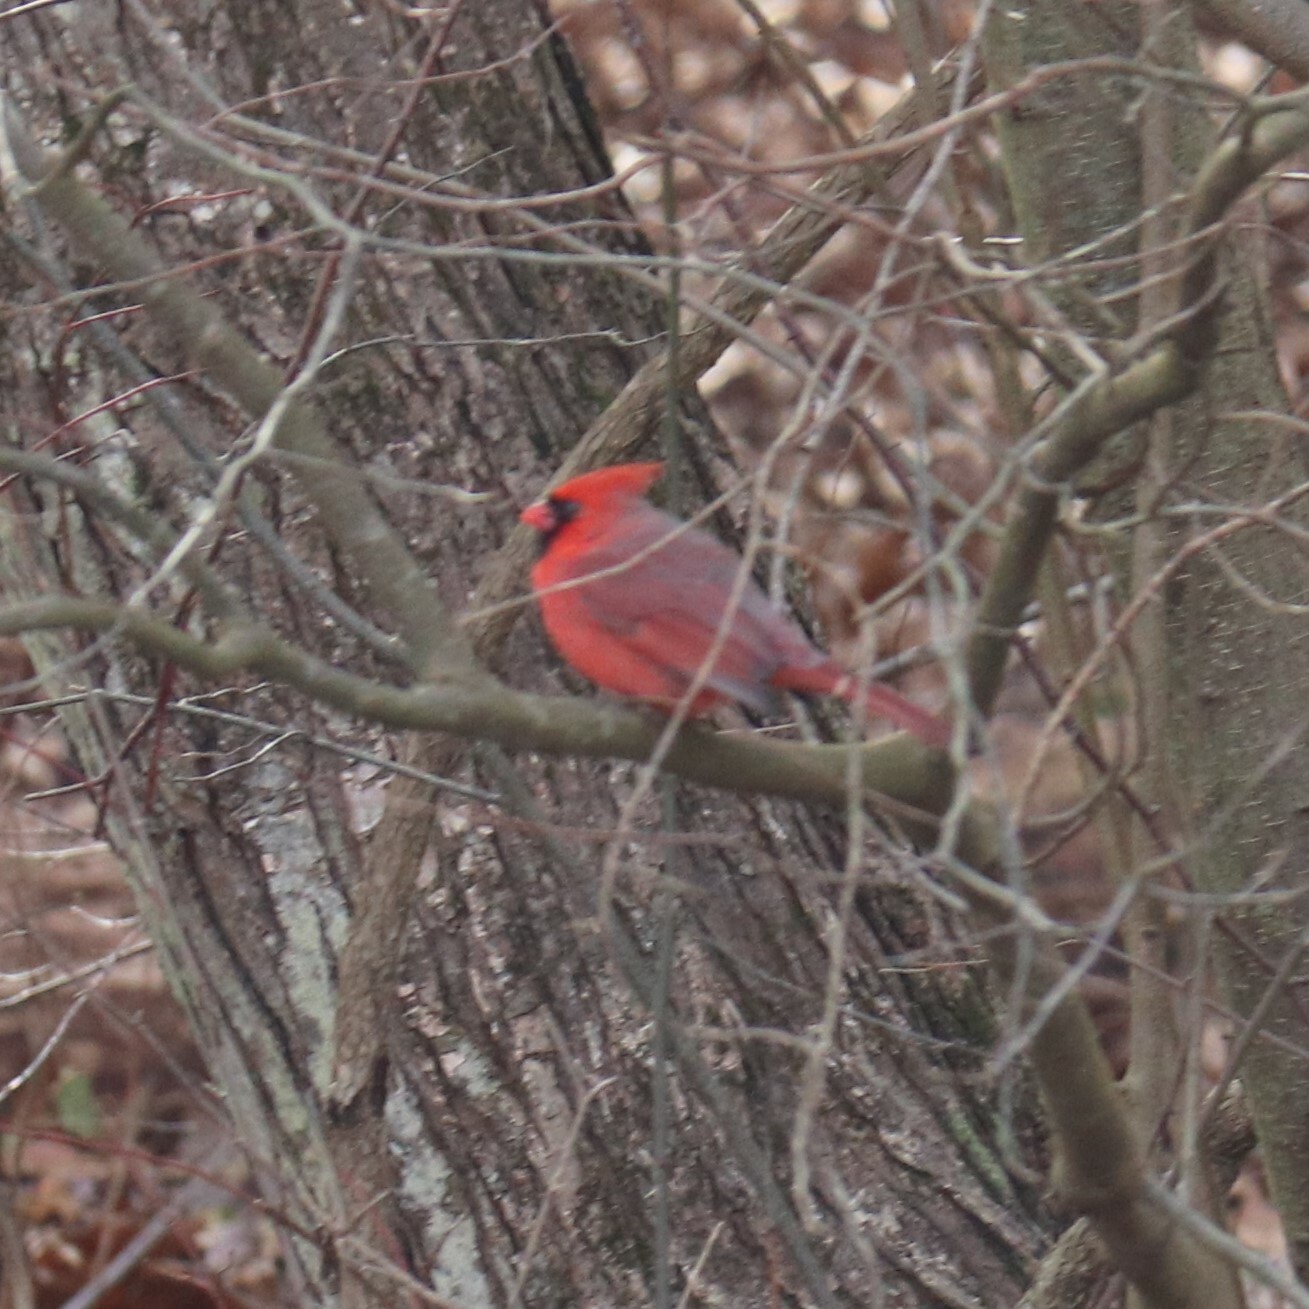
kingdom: Animalia
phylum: Chordata
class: Aves
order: Passeriformes
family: Cardinalidae
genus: Cardinalis
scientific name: Cardinalis cardinalis
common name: Northern cardinal
